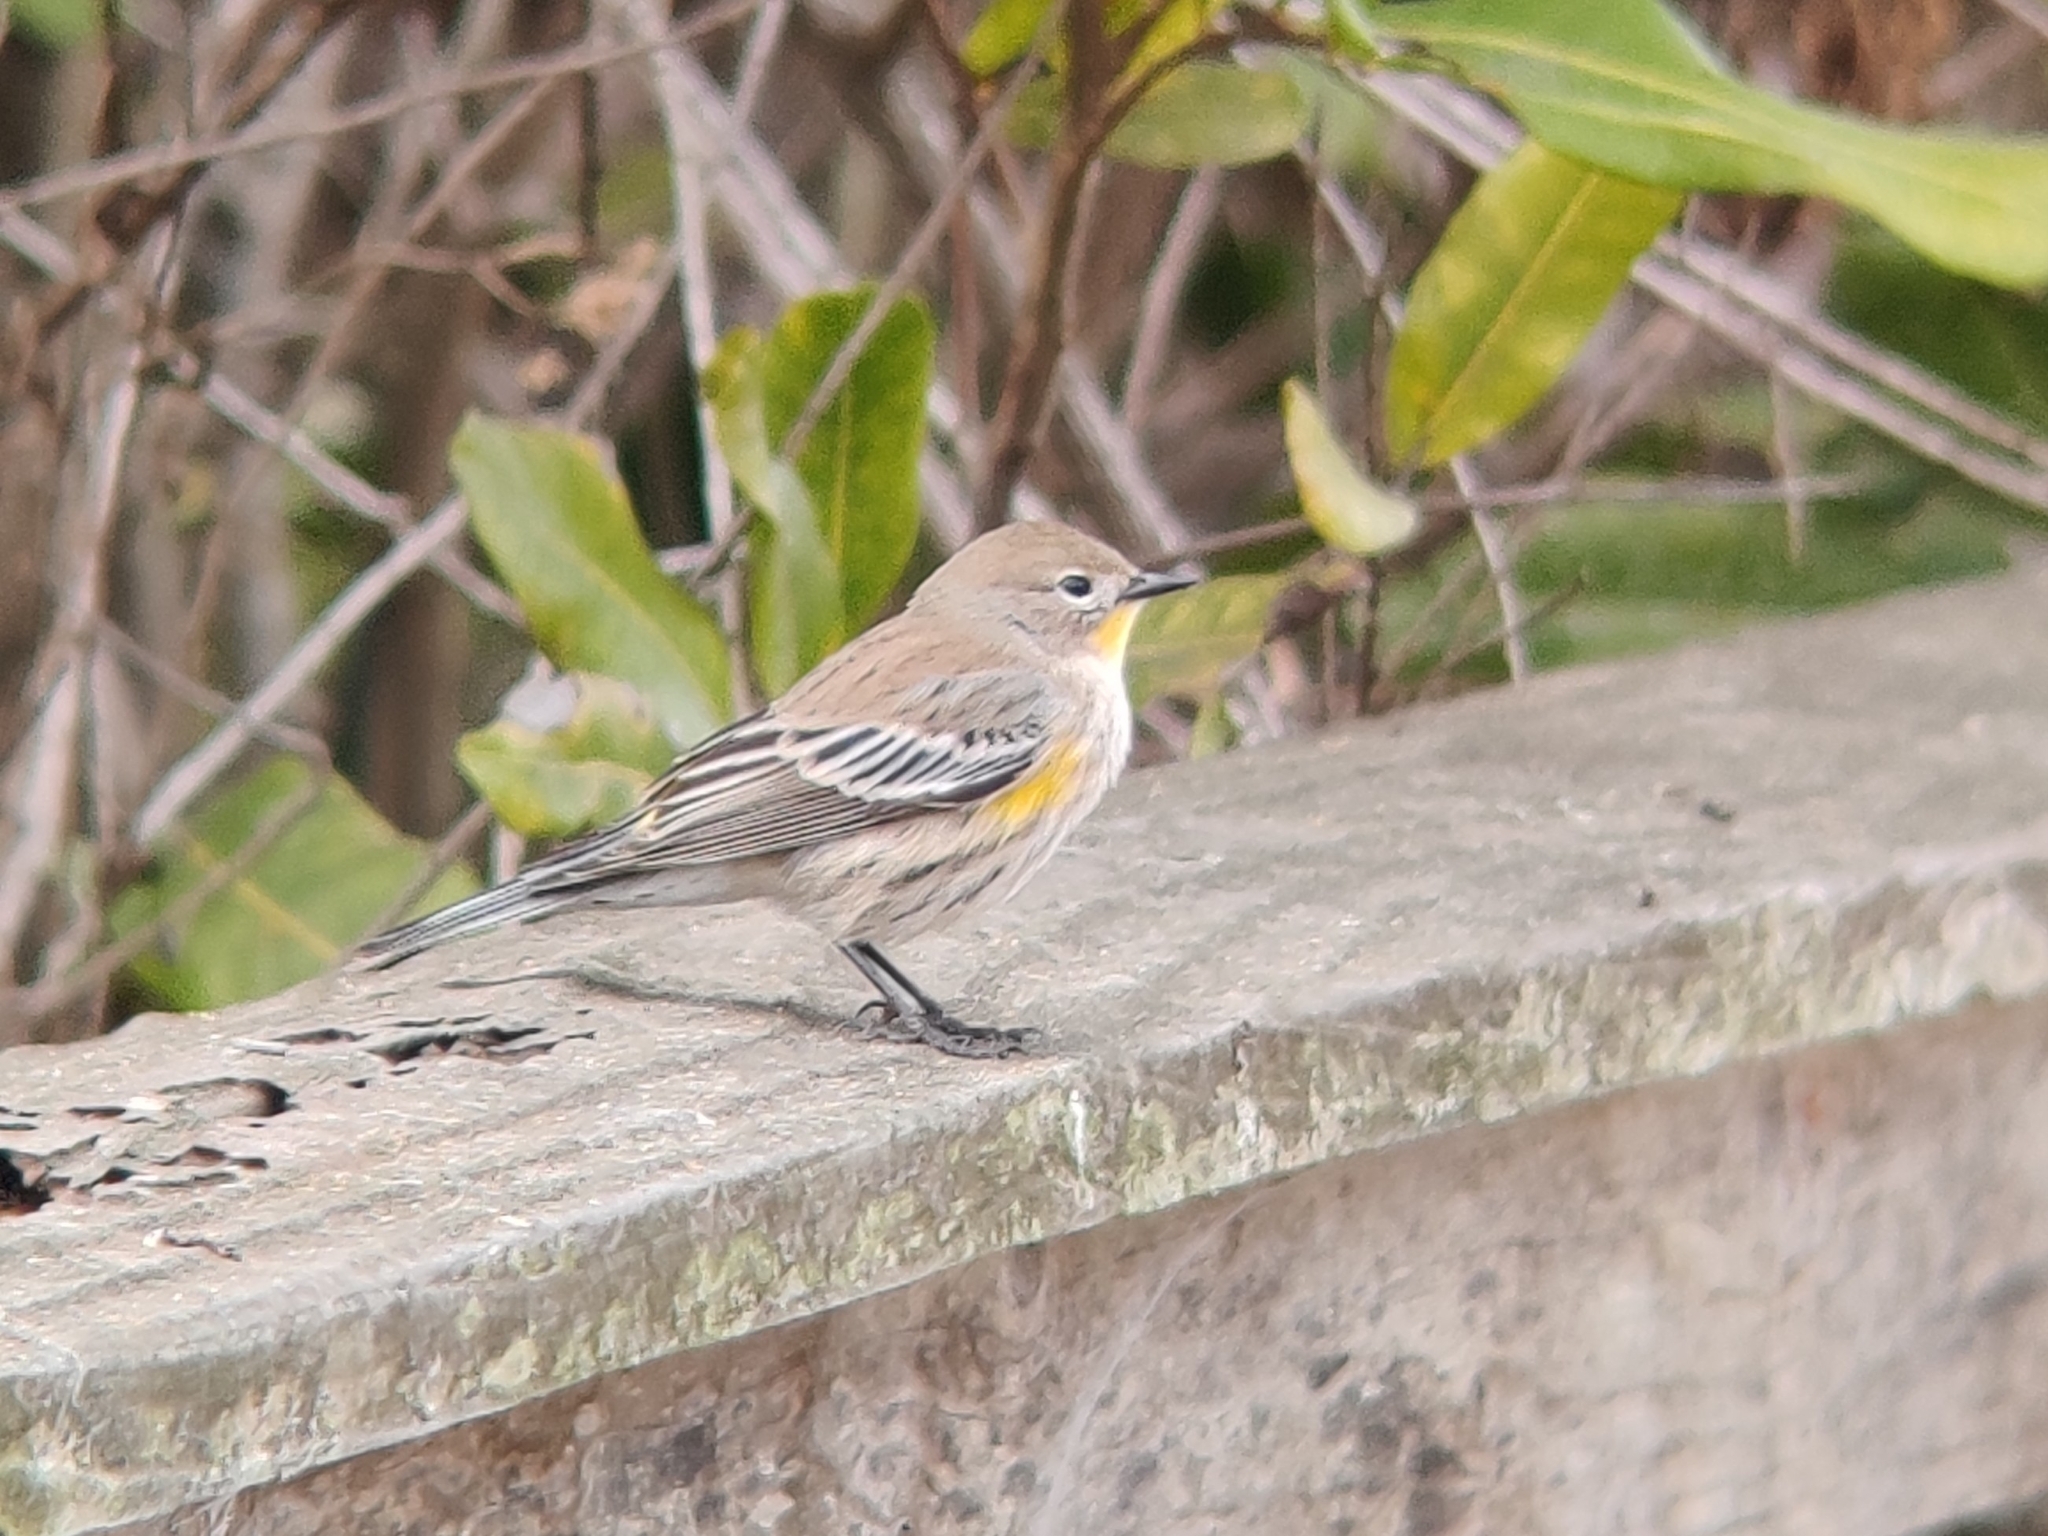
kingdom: Animalia
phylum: Chordata
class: Aves
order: Passeriformes
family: Parulidae
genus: Setophaga
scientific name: Setophaga coronata
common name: Myrtle warbler
